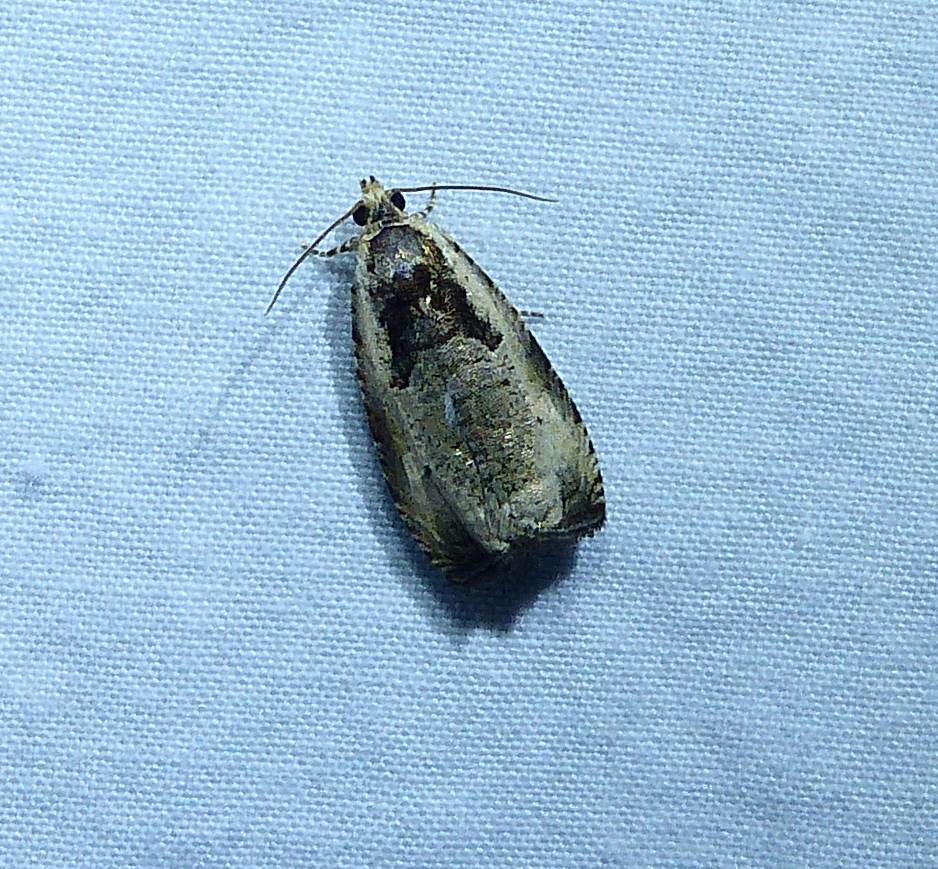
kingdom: Animalia
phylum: Arthropoda
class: Insecta
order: Lepidoptera
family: Tortricidae
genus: Olethreutes
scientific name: Olethreutes punctanum
